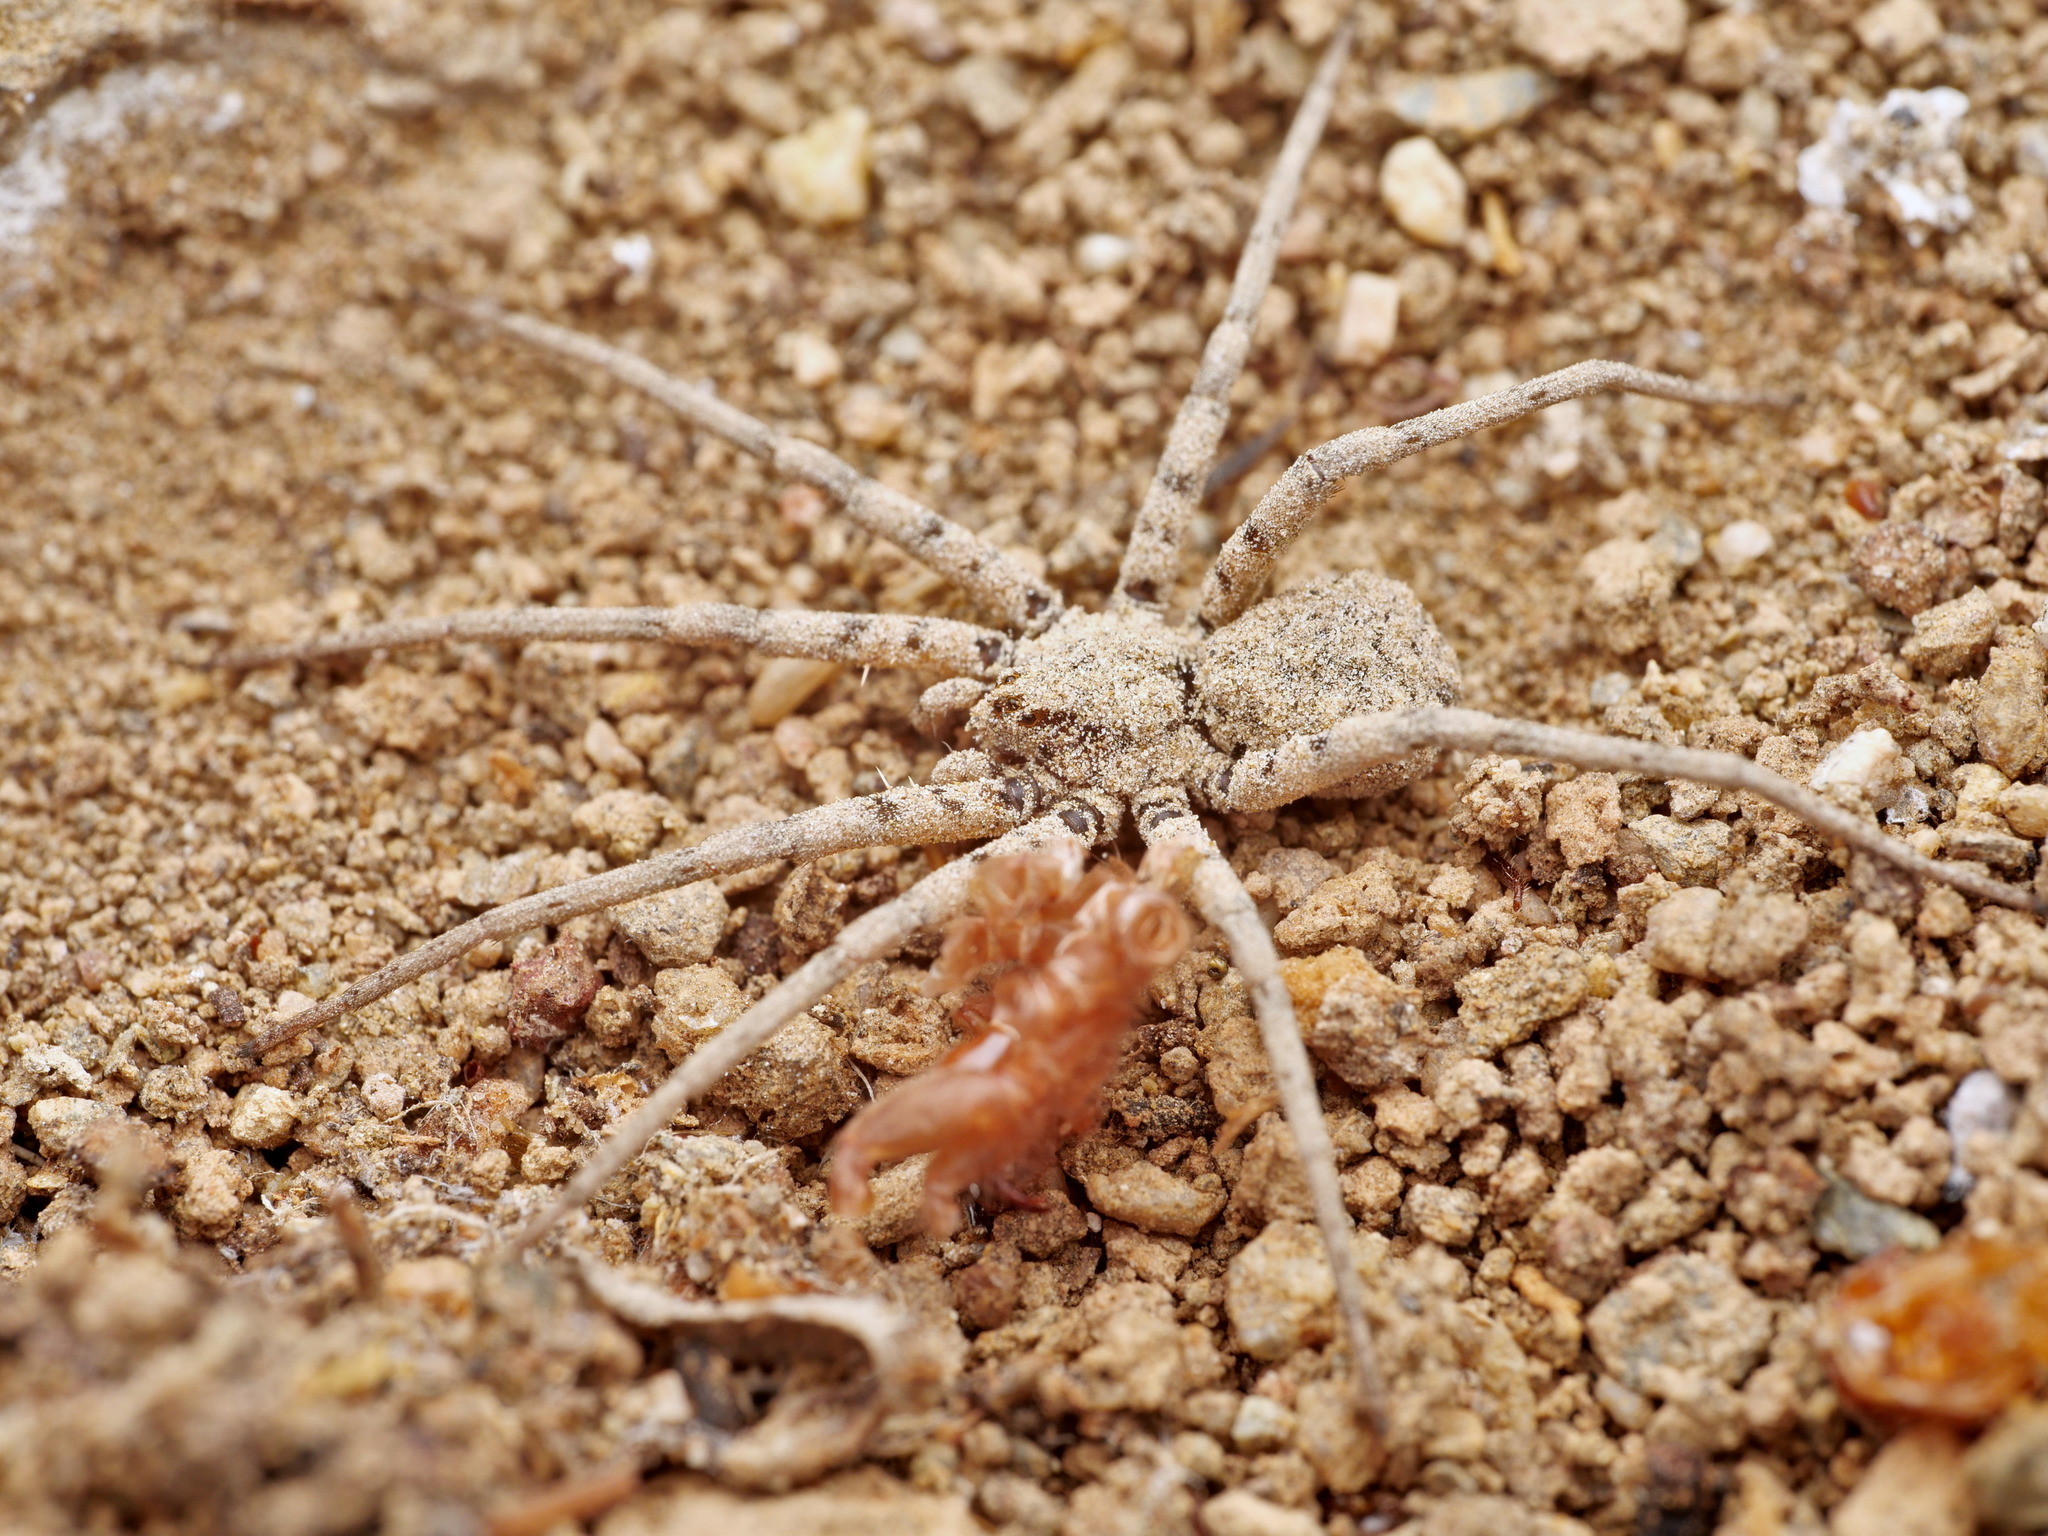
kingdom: Animalia
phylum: Arthropoda
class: Arachnida
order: Araneae
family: Homalonychidae
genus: Homalonychus
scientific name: Homalonychus theologus
